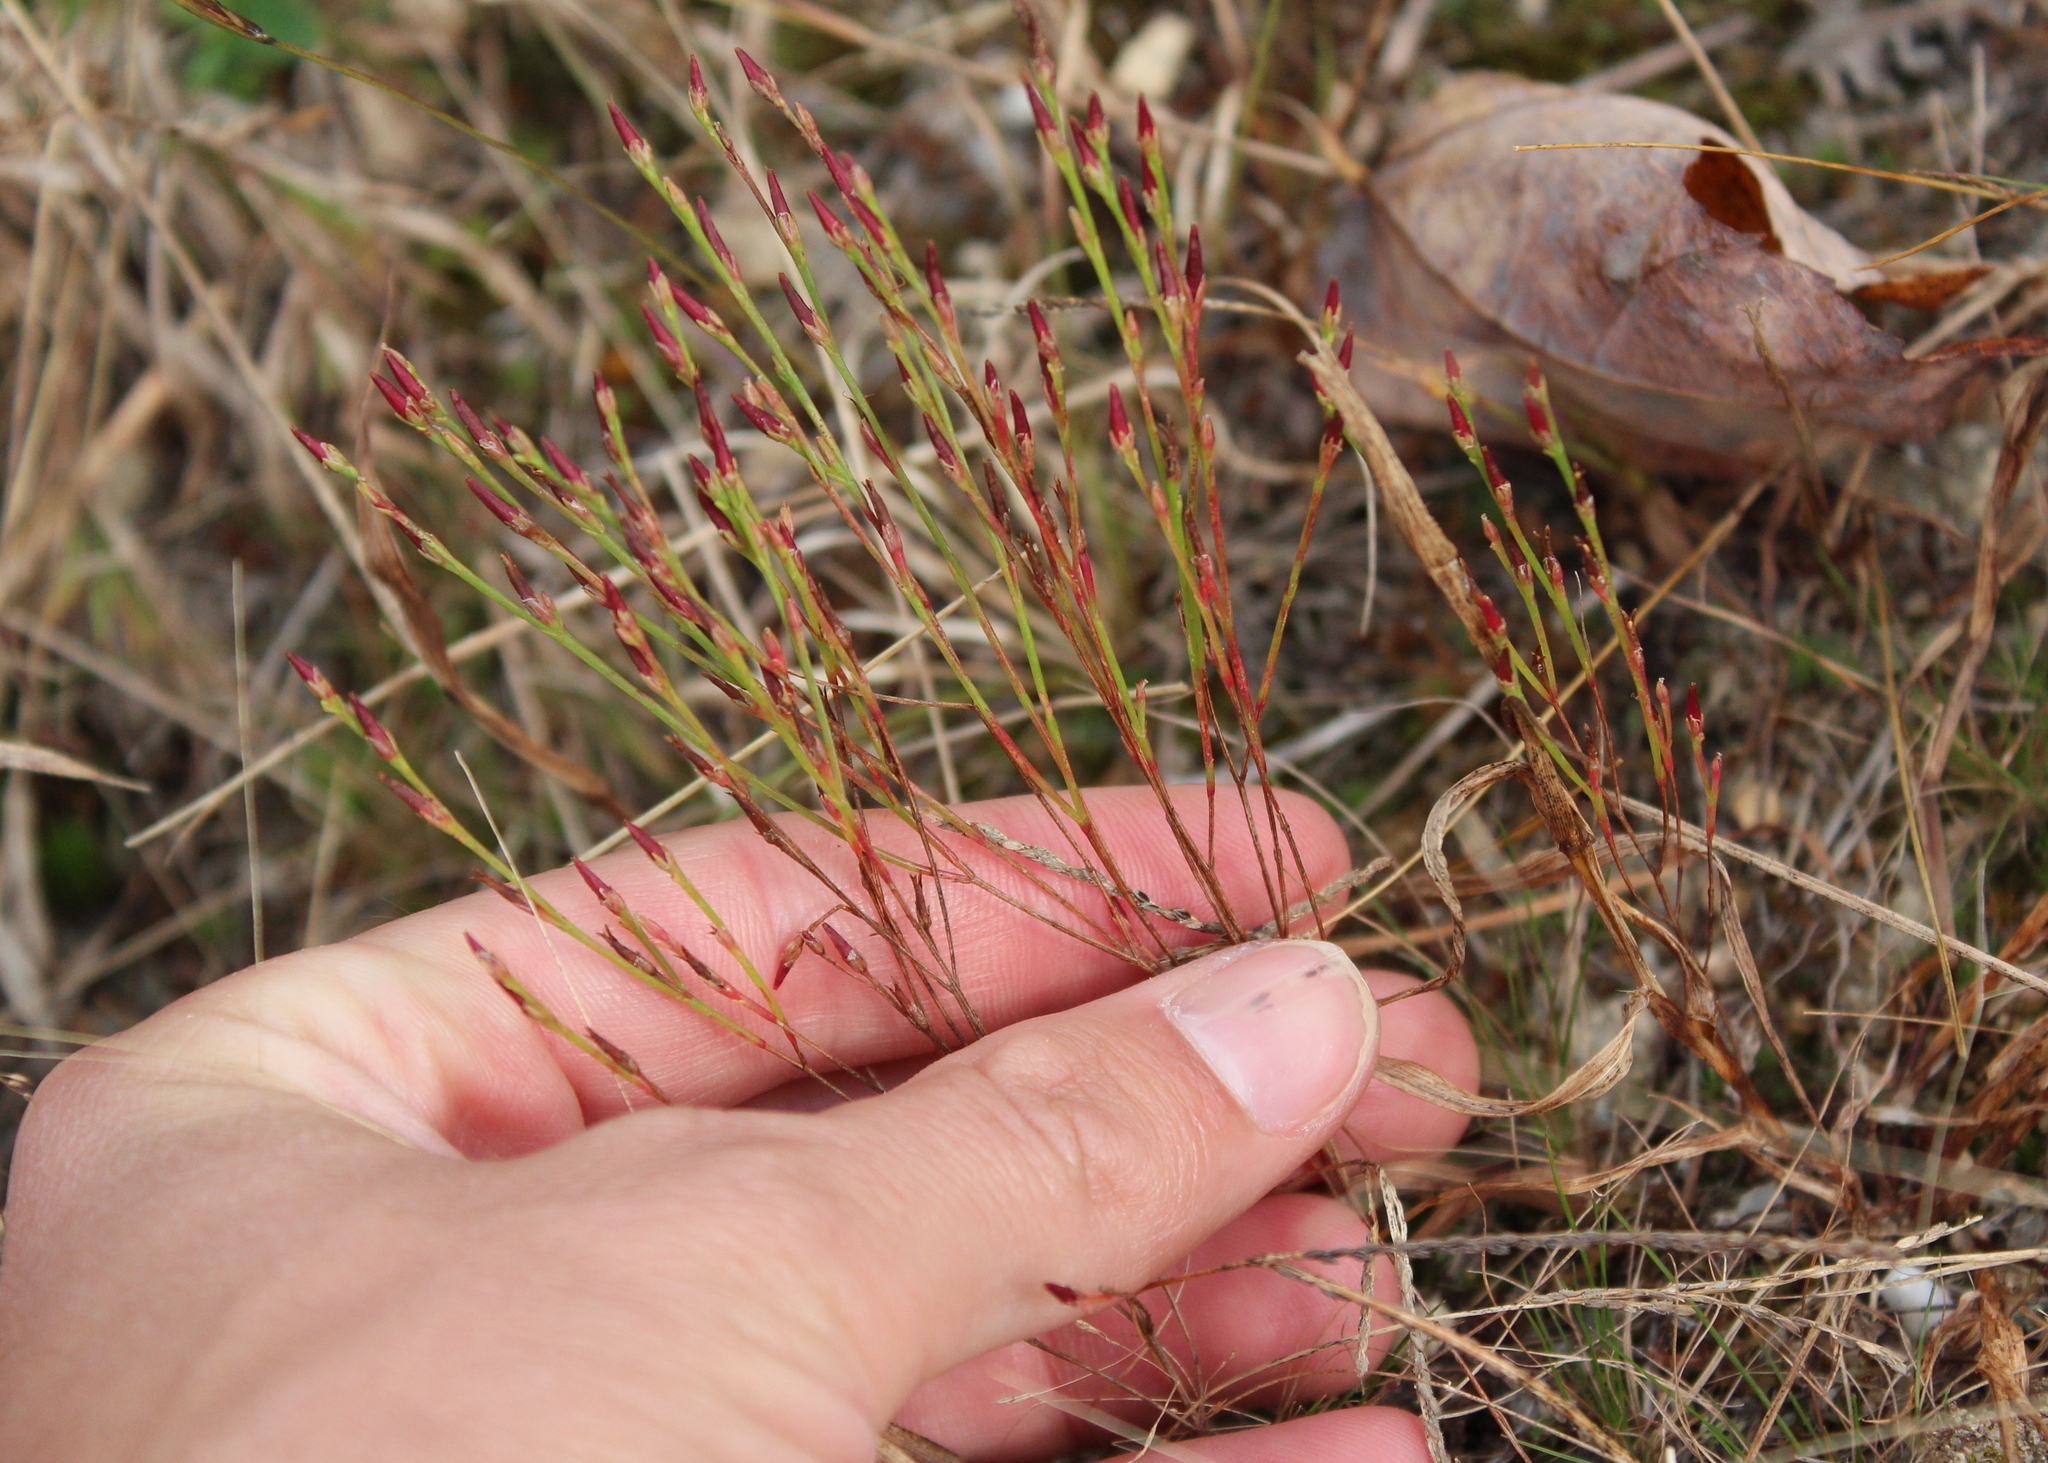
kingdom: Plantae
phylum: Tracheophyta
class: Magnoliopsida
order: Malpighiales
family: Hypericaceae
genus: Hypericum
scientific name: Hypericum gentianoides
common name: Gentian-leaved st. john's-wort
